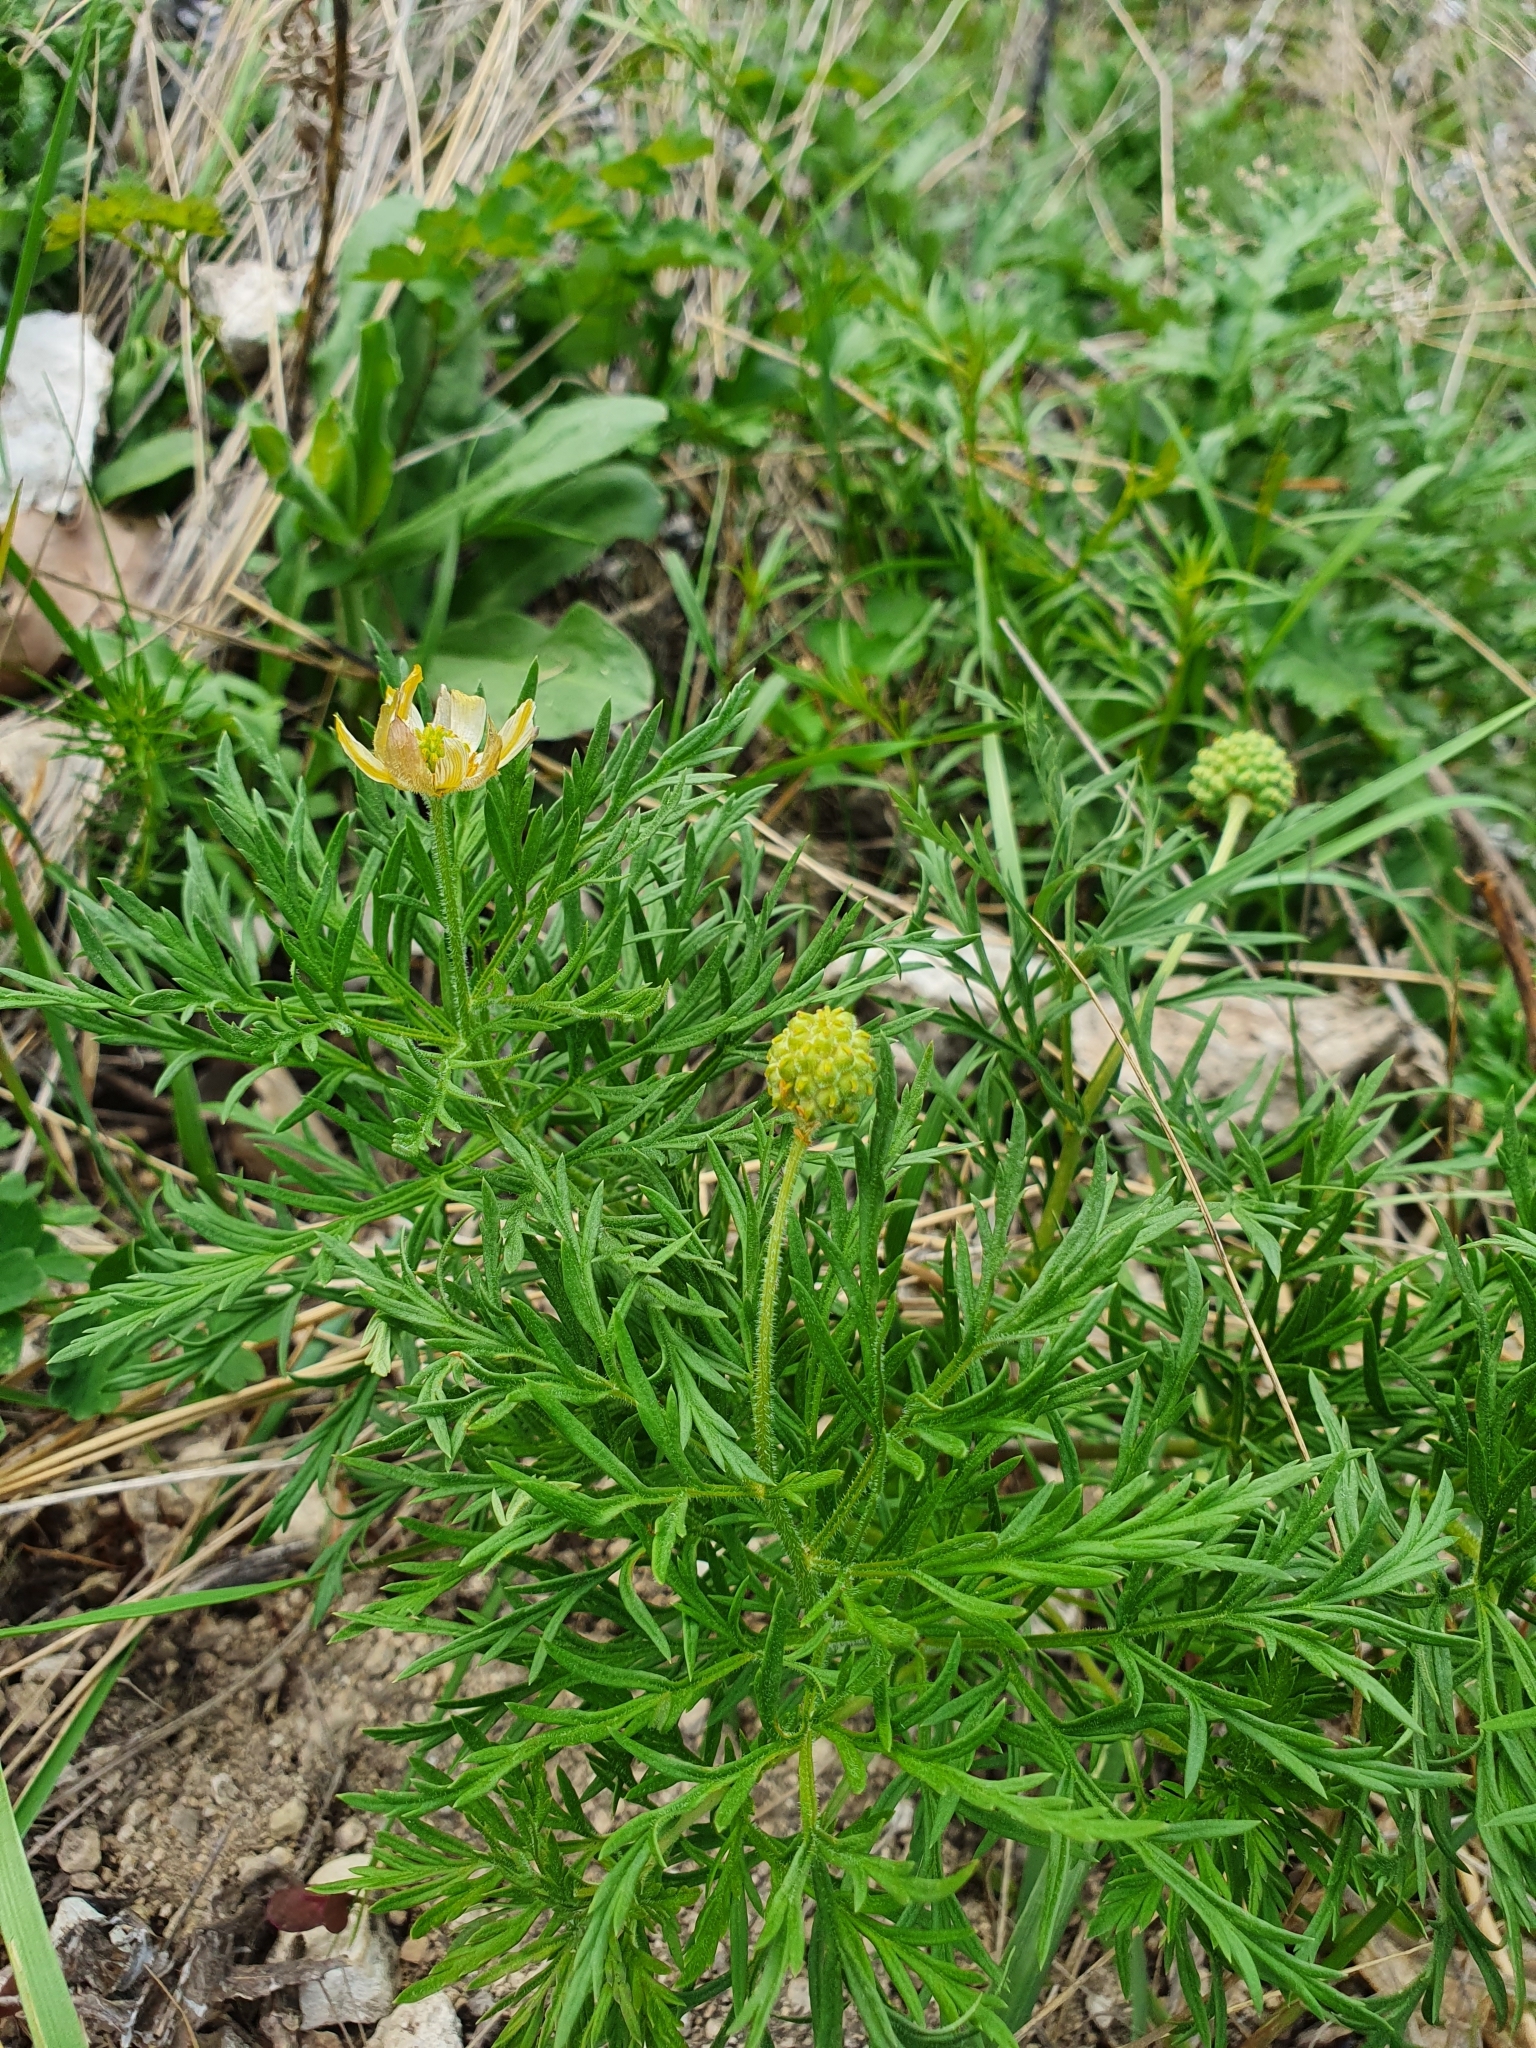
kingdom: Plantae
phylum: Tracheophyta
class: Magnoliopsida
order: Ranunculales
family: Ranunculaceae
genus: Adonis
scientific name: Adonis volgensis
